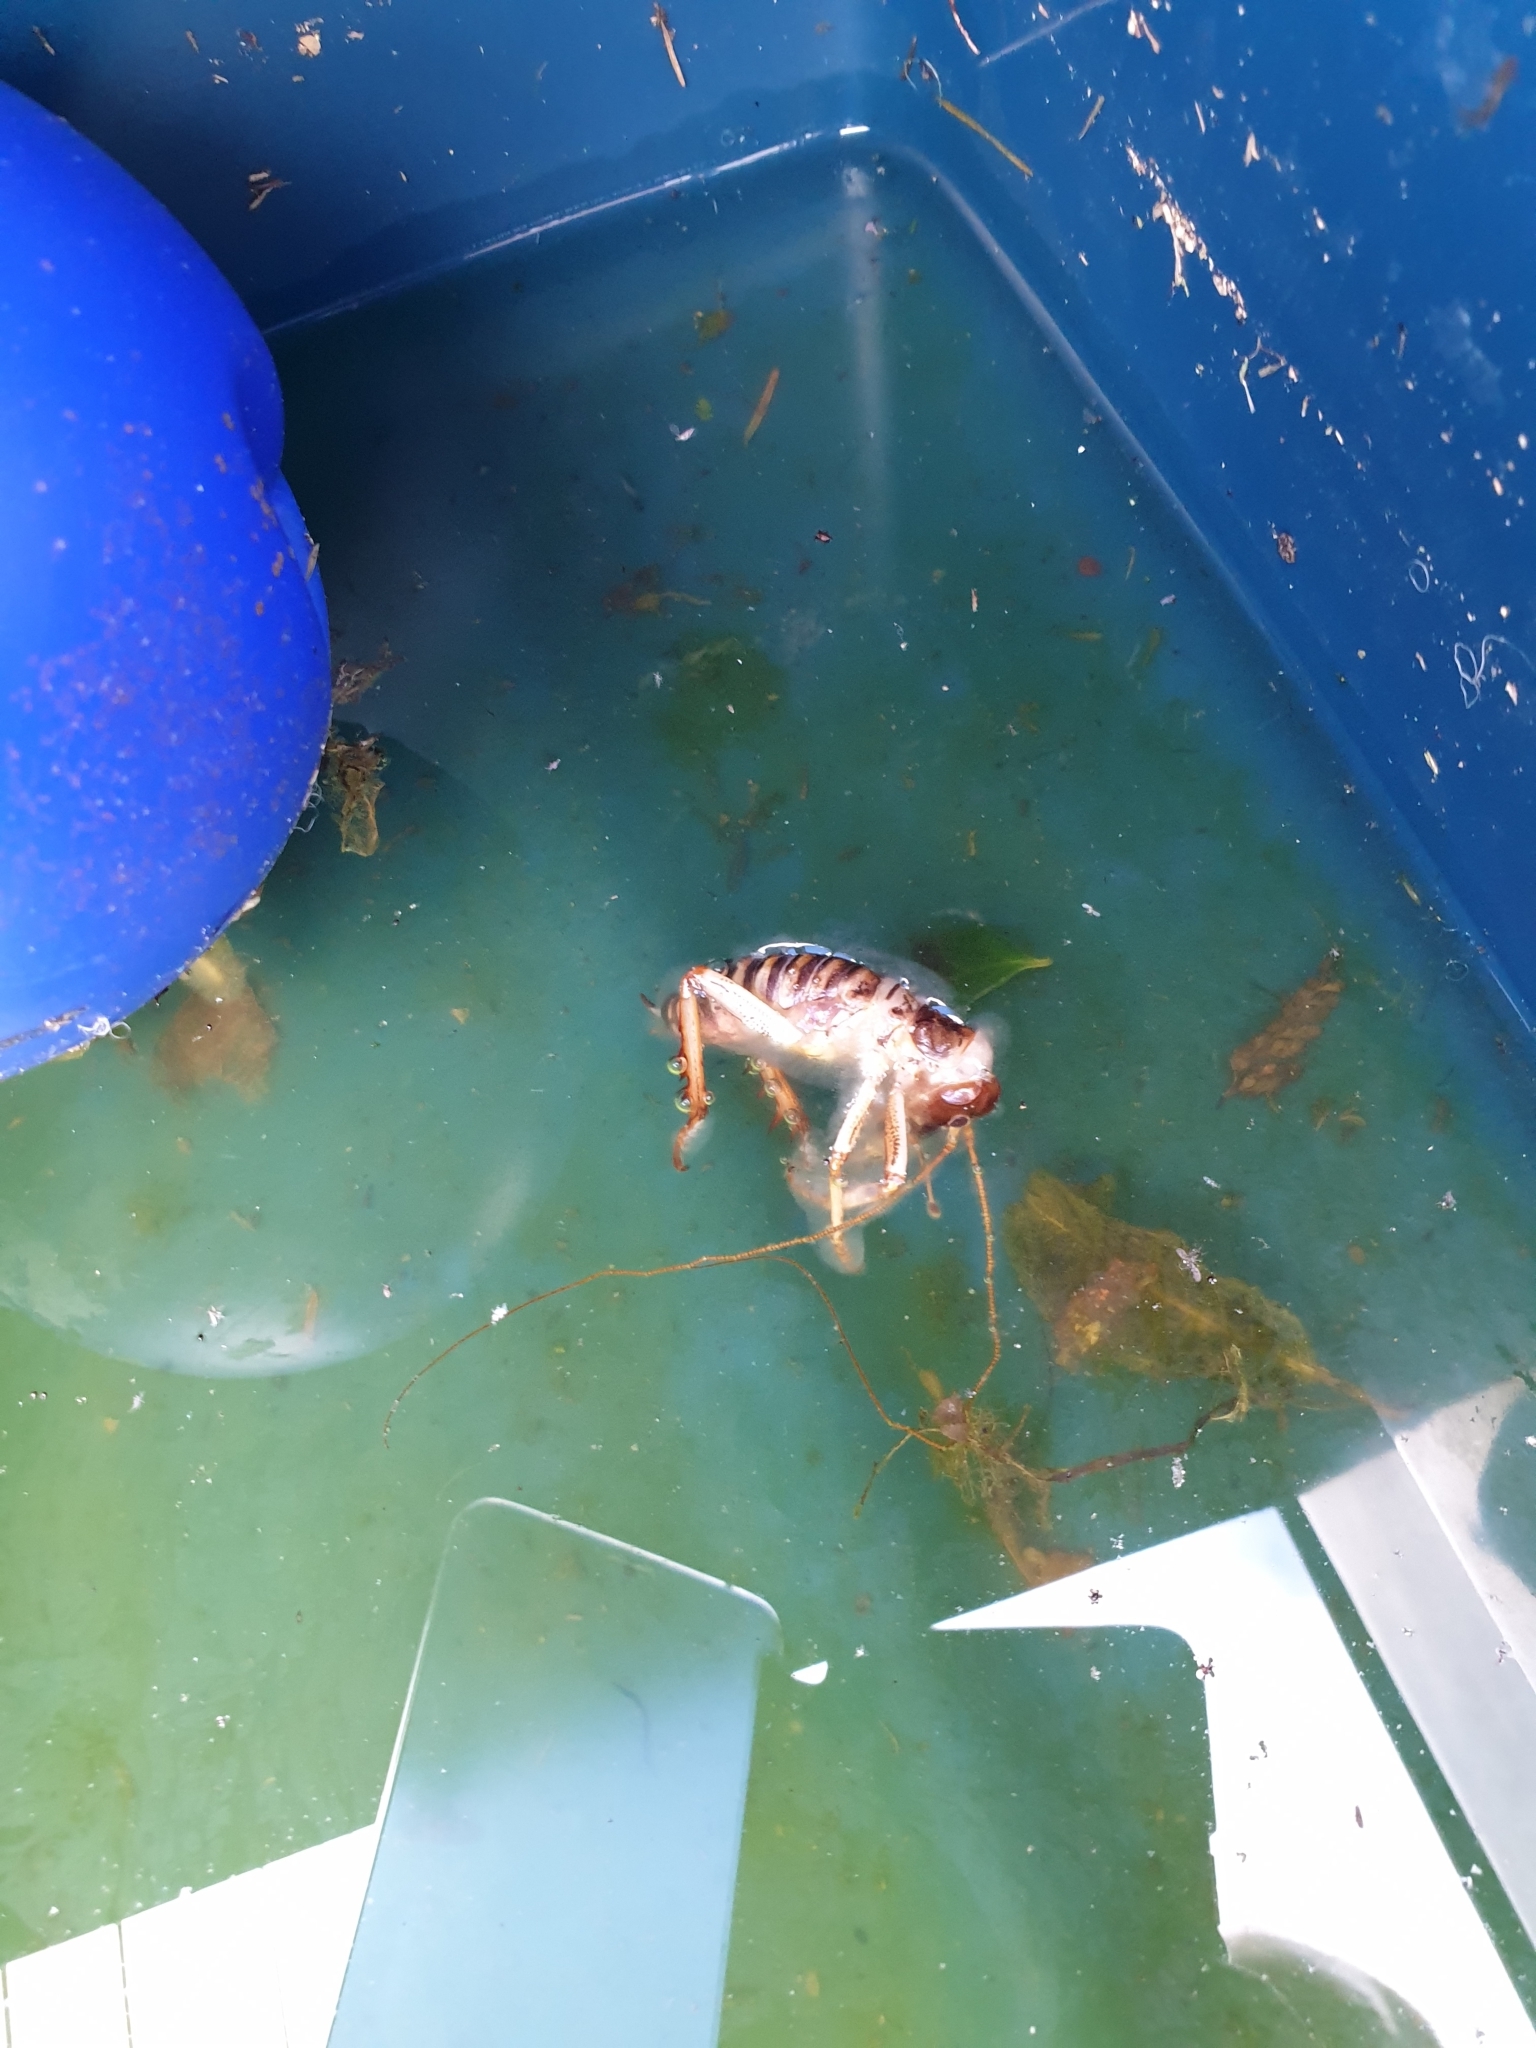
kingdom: Animalia
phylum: Arthropoda
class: Insecta
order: Orthoptera
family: Anostostomatidae
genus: Hemideina
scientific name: Hemideina crassidens
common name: Wellington tree weta
